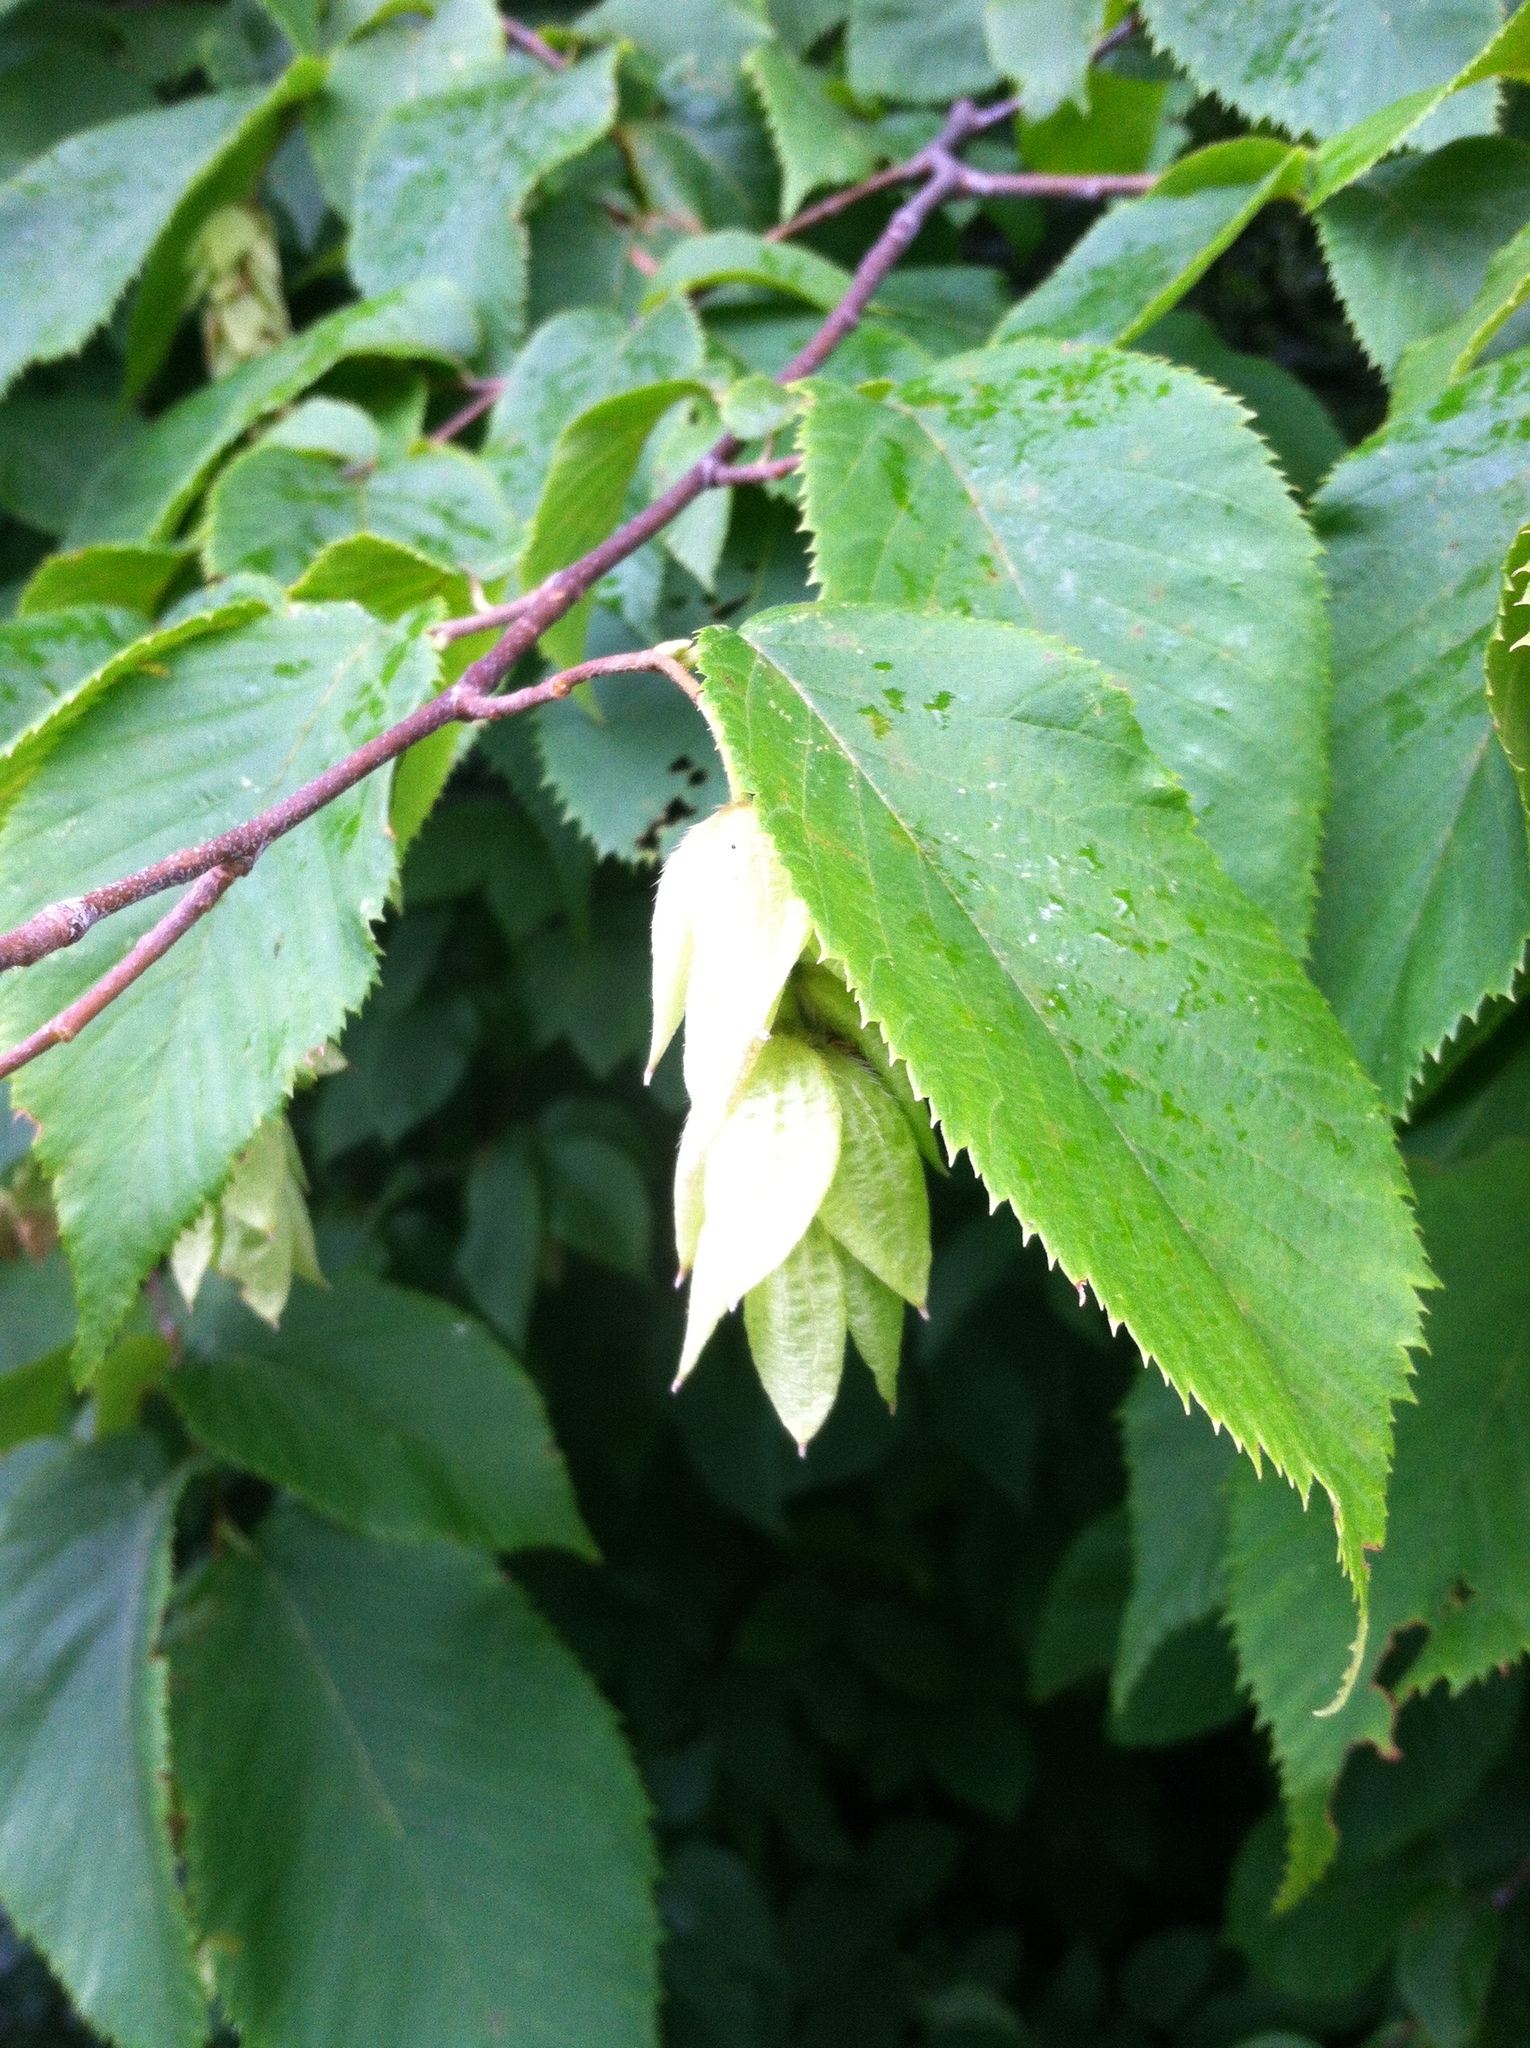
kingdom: Plantae
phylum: Tracheophyta
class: Magnoliopsida
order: Fagales
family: Betulaceae
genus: Ostrya
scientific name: Ostrya virginiana
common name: Ironwood
